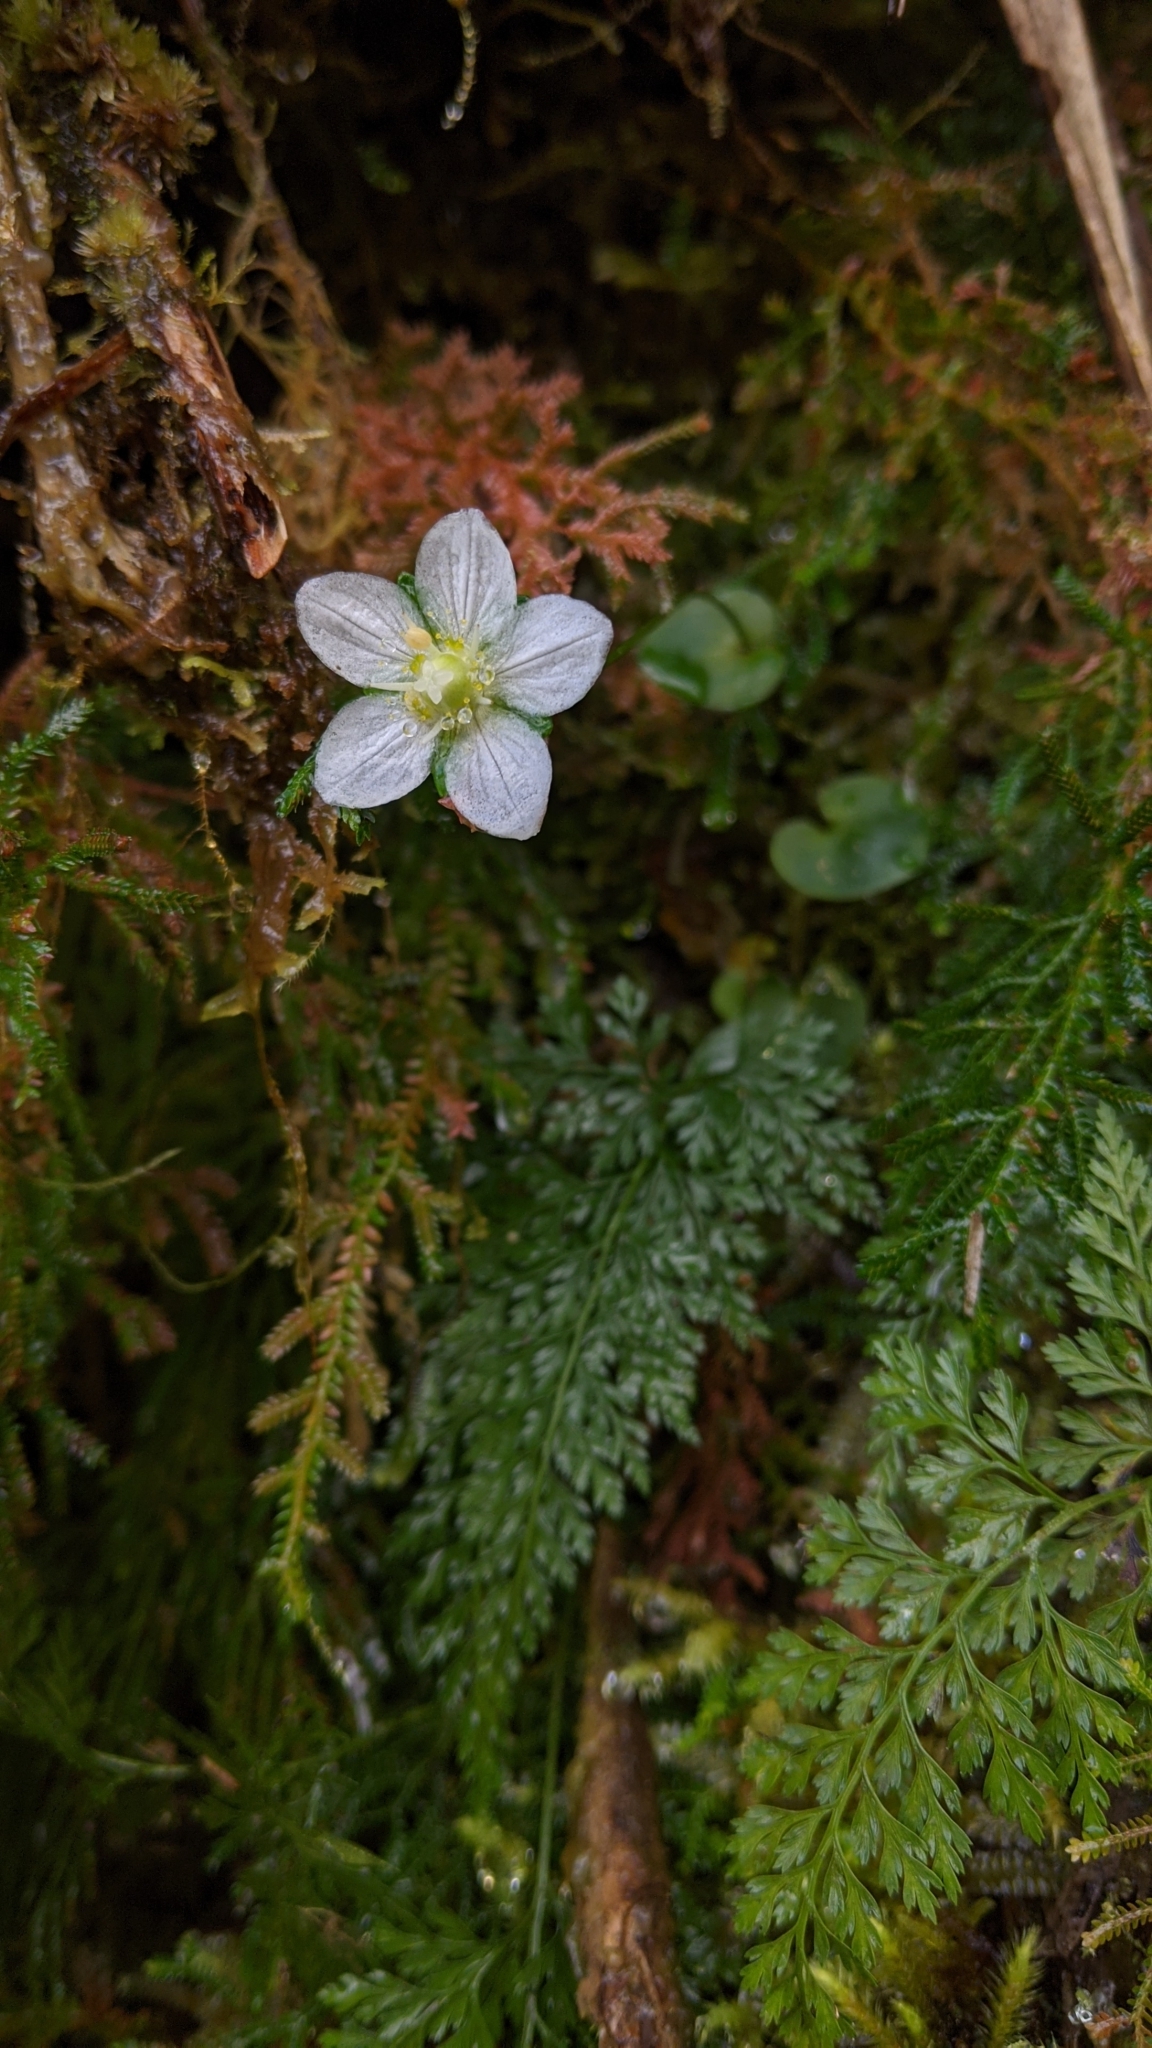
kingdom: Plantae
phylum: Tracheophyta
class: Magnoliopsida
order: Celastrales
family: Parnassiaceae
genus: Parnassia
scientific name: Parnassia palustris
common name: Grass-of-parnassus
